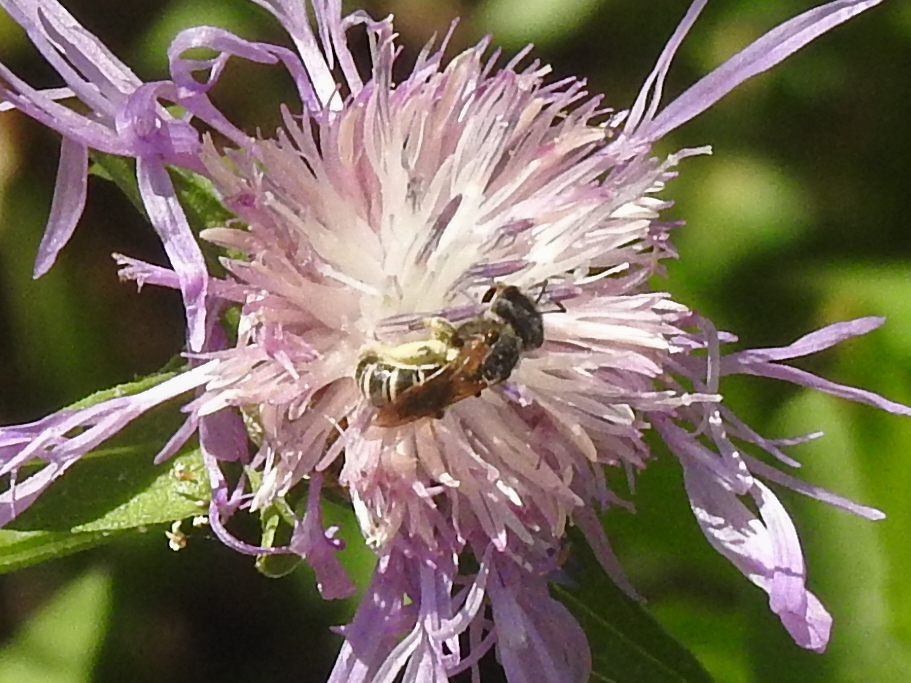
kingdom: Animalia
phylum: Arthropoda
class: Insecta
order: Hymenoptera
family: Halictidae
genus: Halictus
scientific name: Halictus ligatus
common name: Ligated furrow bee
